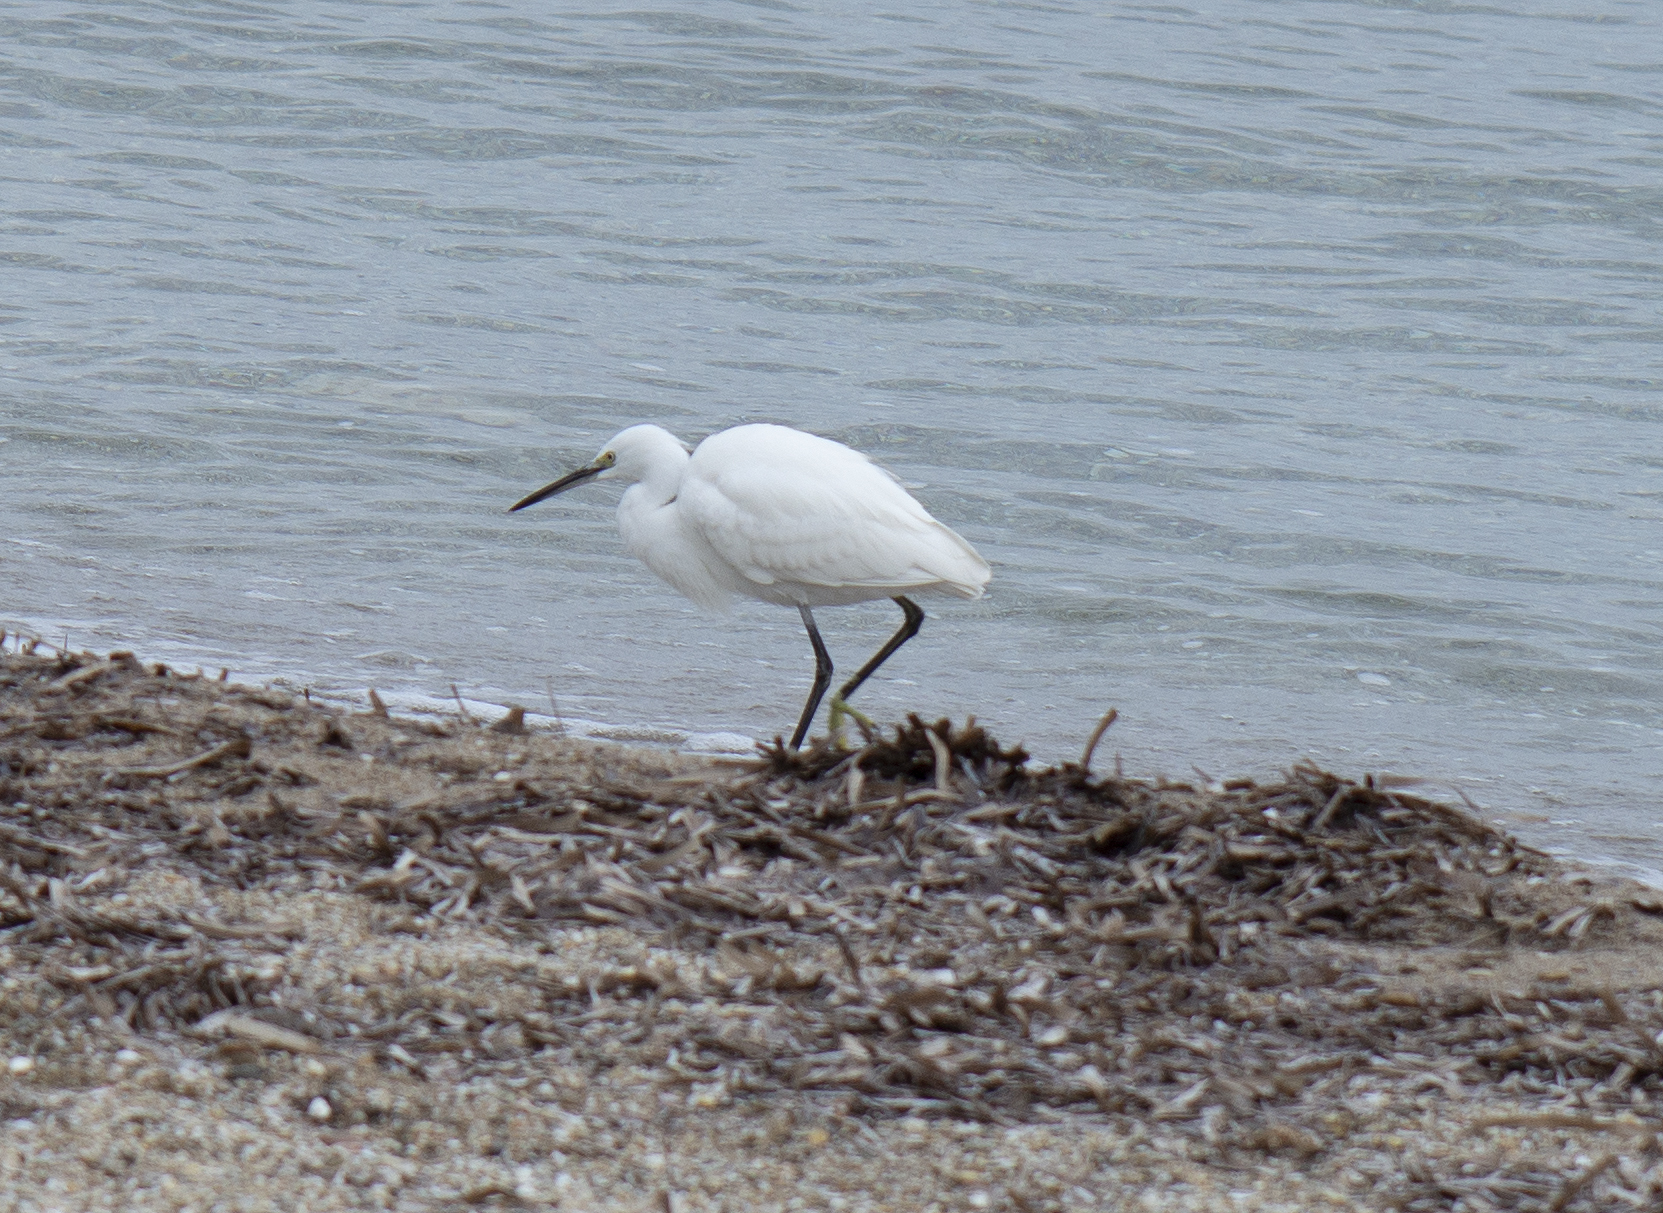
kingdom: Animalia
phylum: Chordata
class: Aves
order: Pelecaniformes
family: Ardeidae
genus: Egretta
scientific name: Egretta garzetta
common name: Little egret
